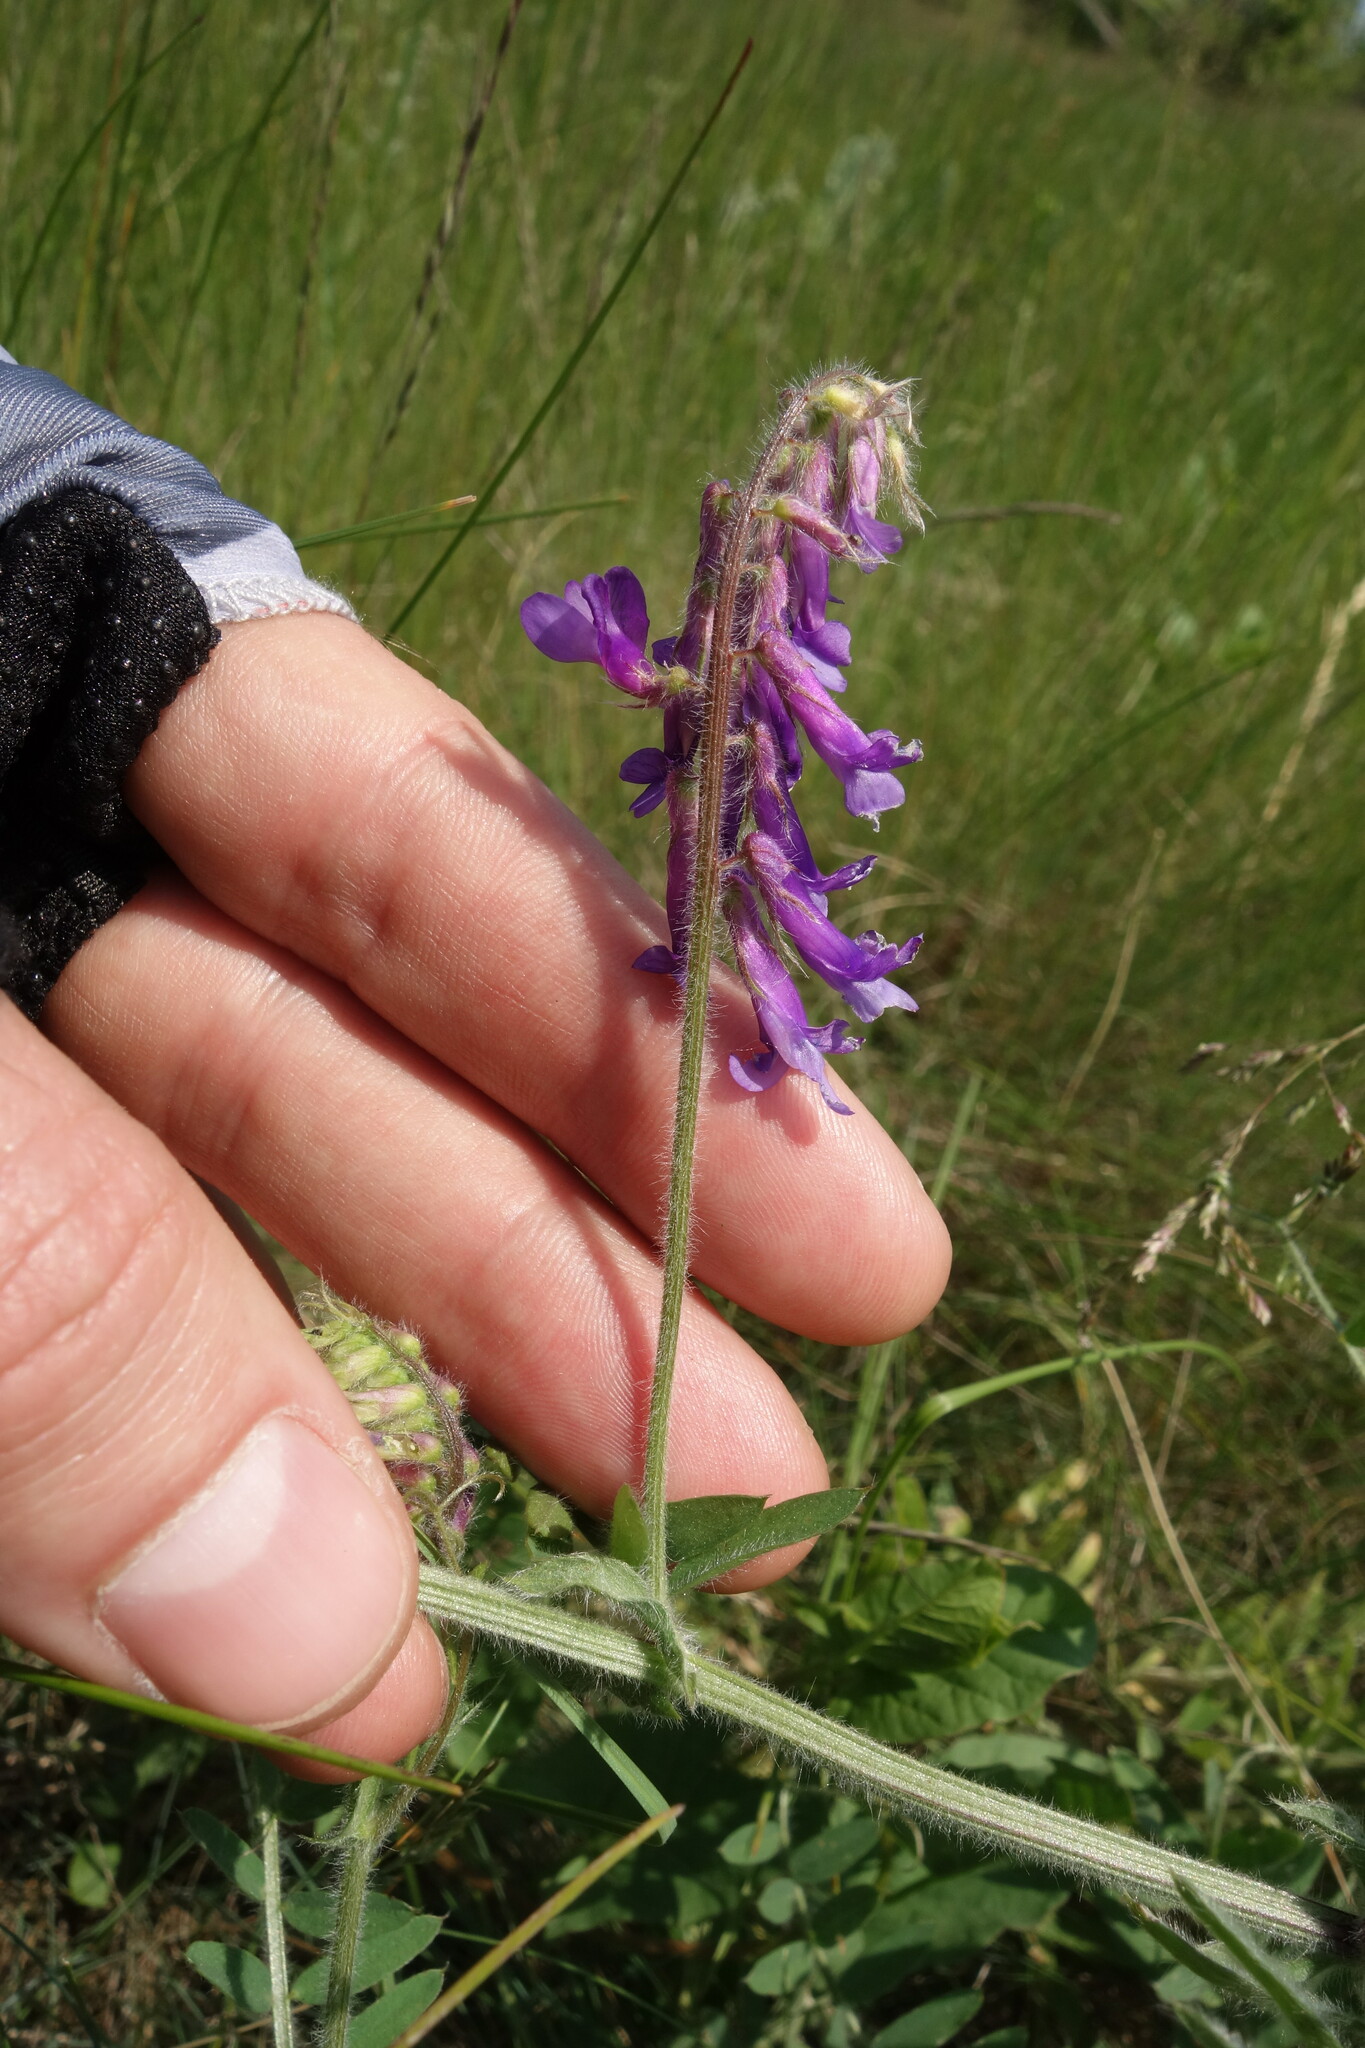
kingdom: Plantae
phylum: Tracheophyta
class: Magnoliopsida
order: Fabales
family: Fabaceae
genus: Vicia
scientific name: Vicia villosa
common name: Fodder vetch
